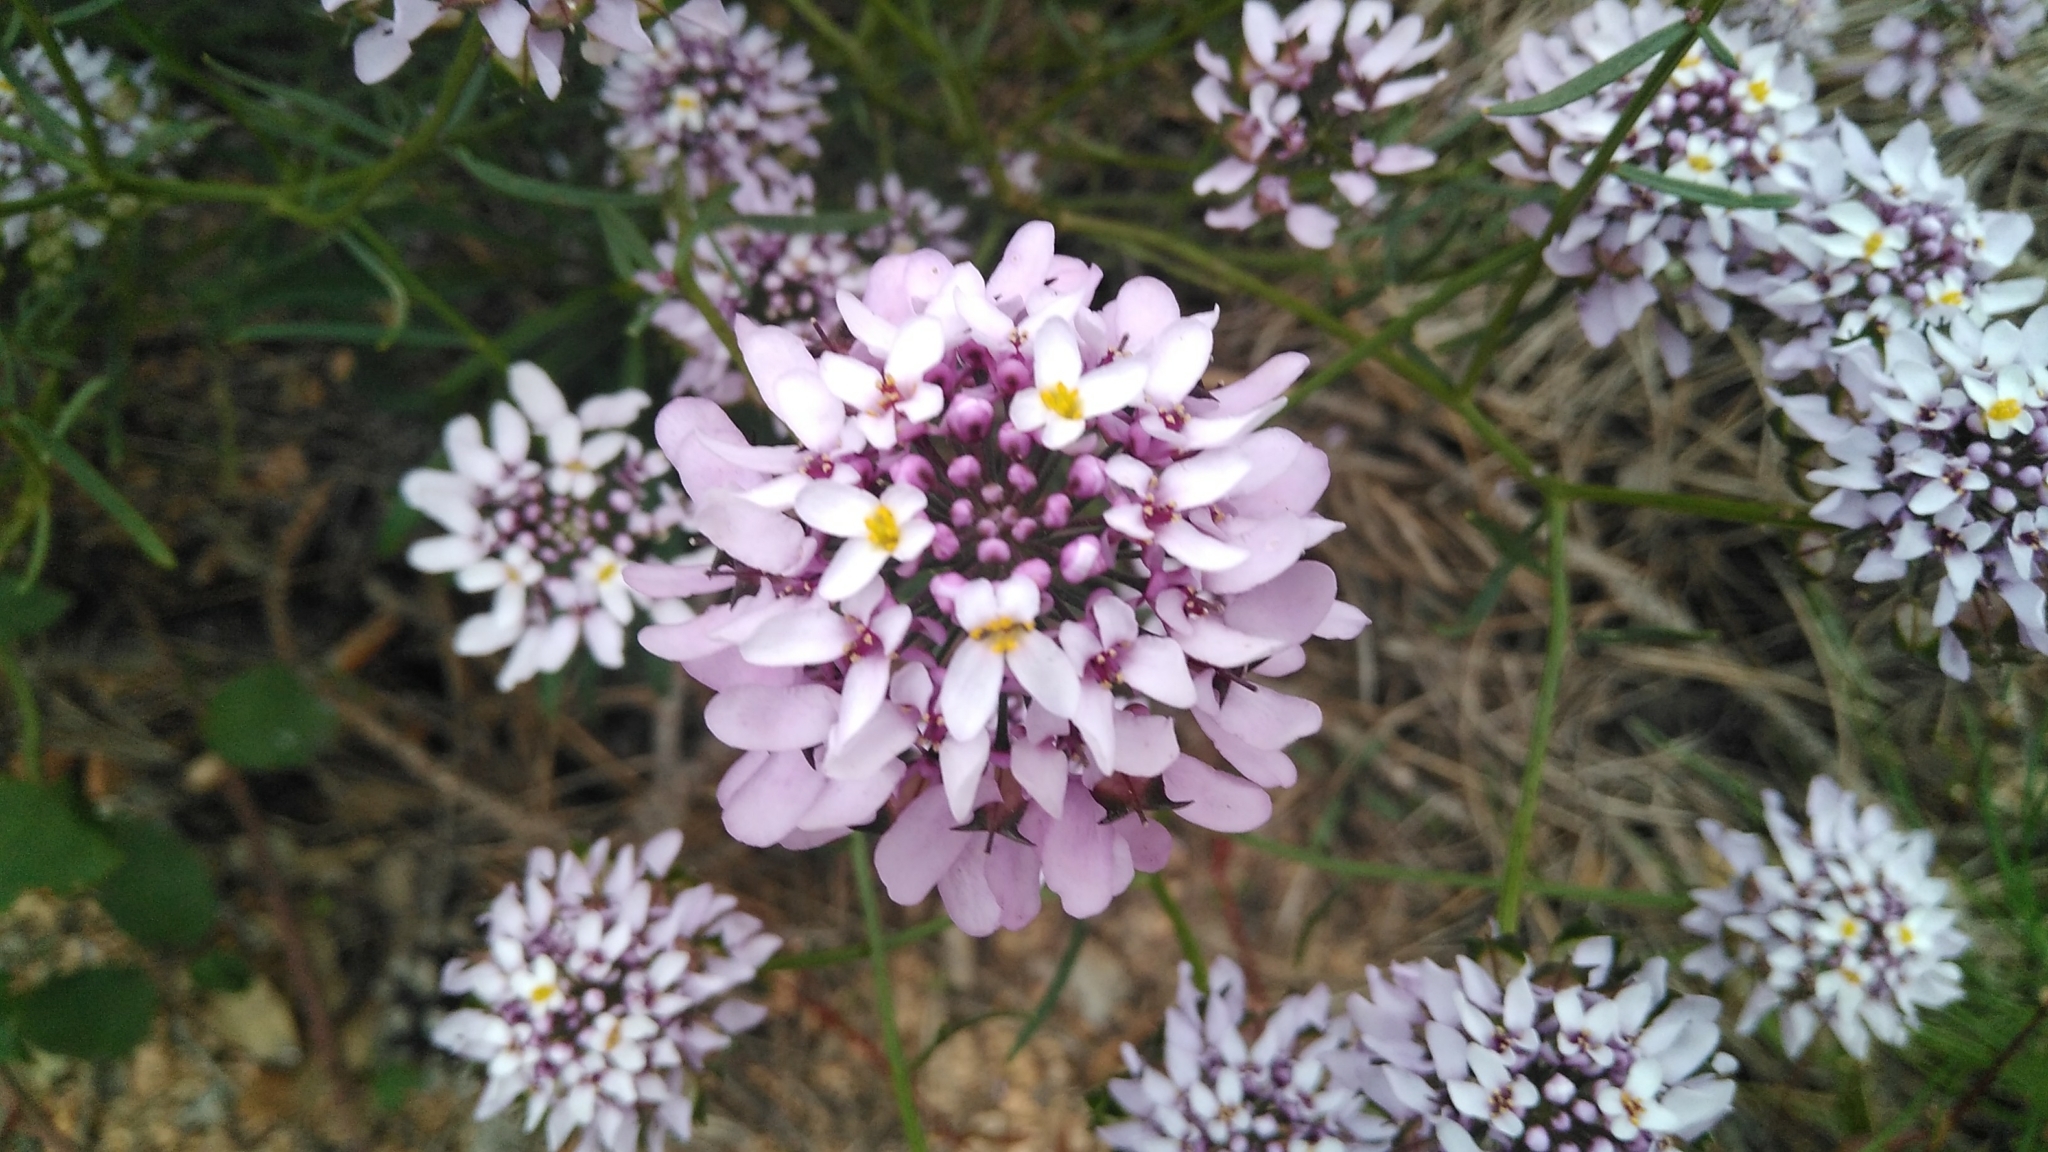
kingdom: Plantae
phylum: Tracheophyta
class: Magnoliopsida
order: Brassicales
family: Brassicaceae
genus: Iberis
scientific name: Iberis linifolia
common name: Candytuft
